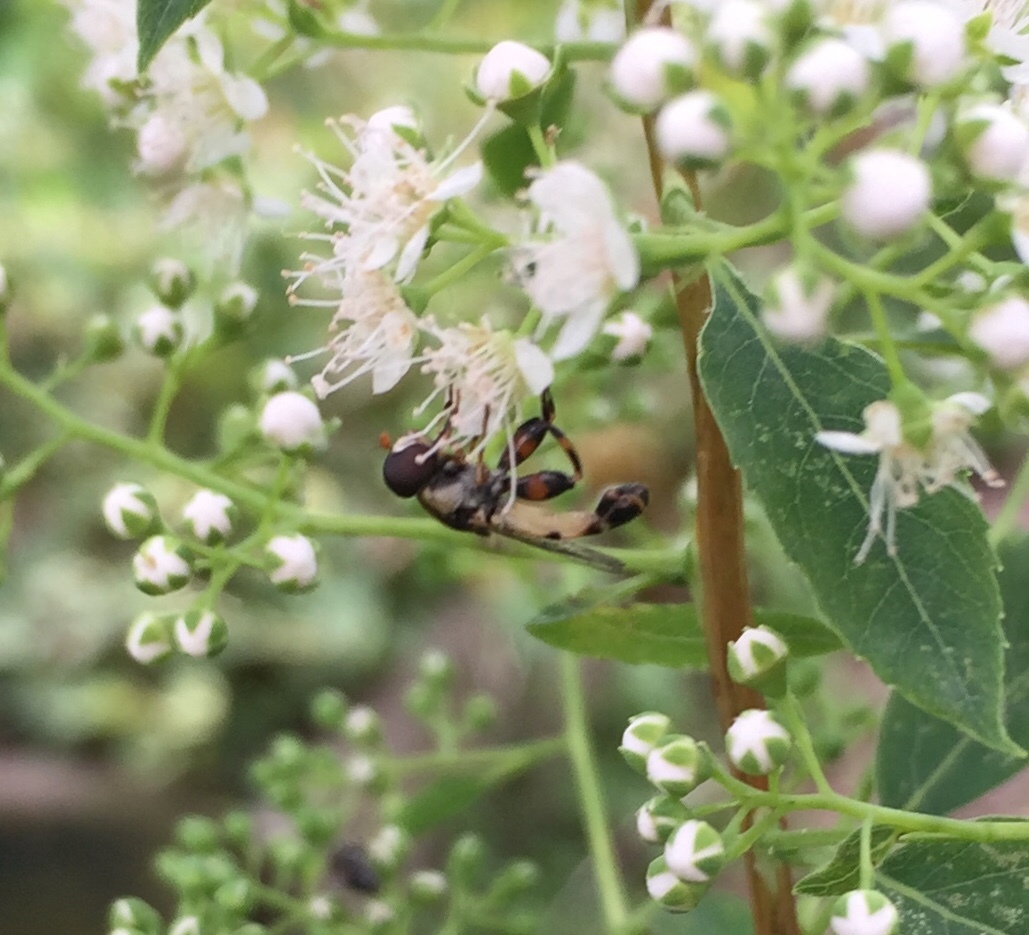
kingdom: Animalia
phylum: Arthropoda
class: Insecta
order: Diptera
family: Syrphidae
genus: Syritta
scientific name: Syritta pipiens
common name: Hover fly
